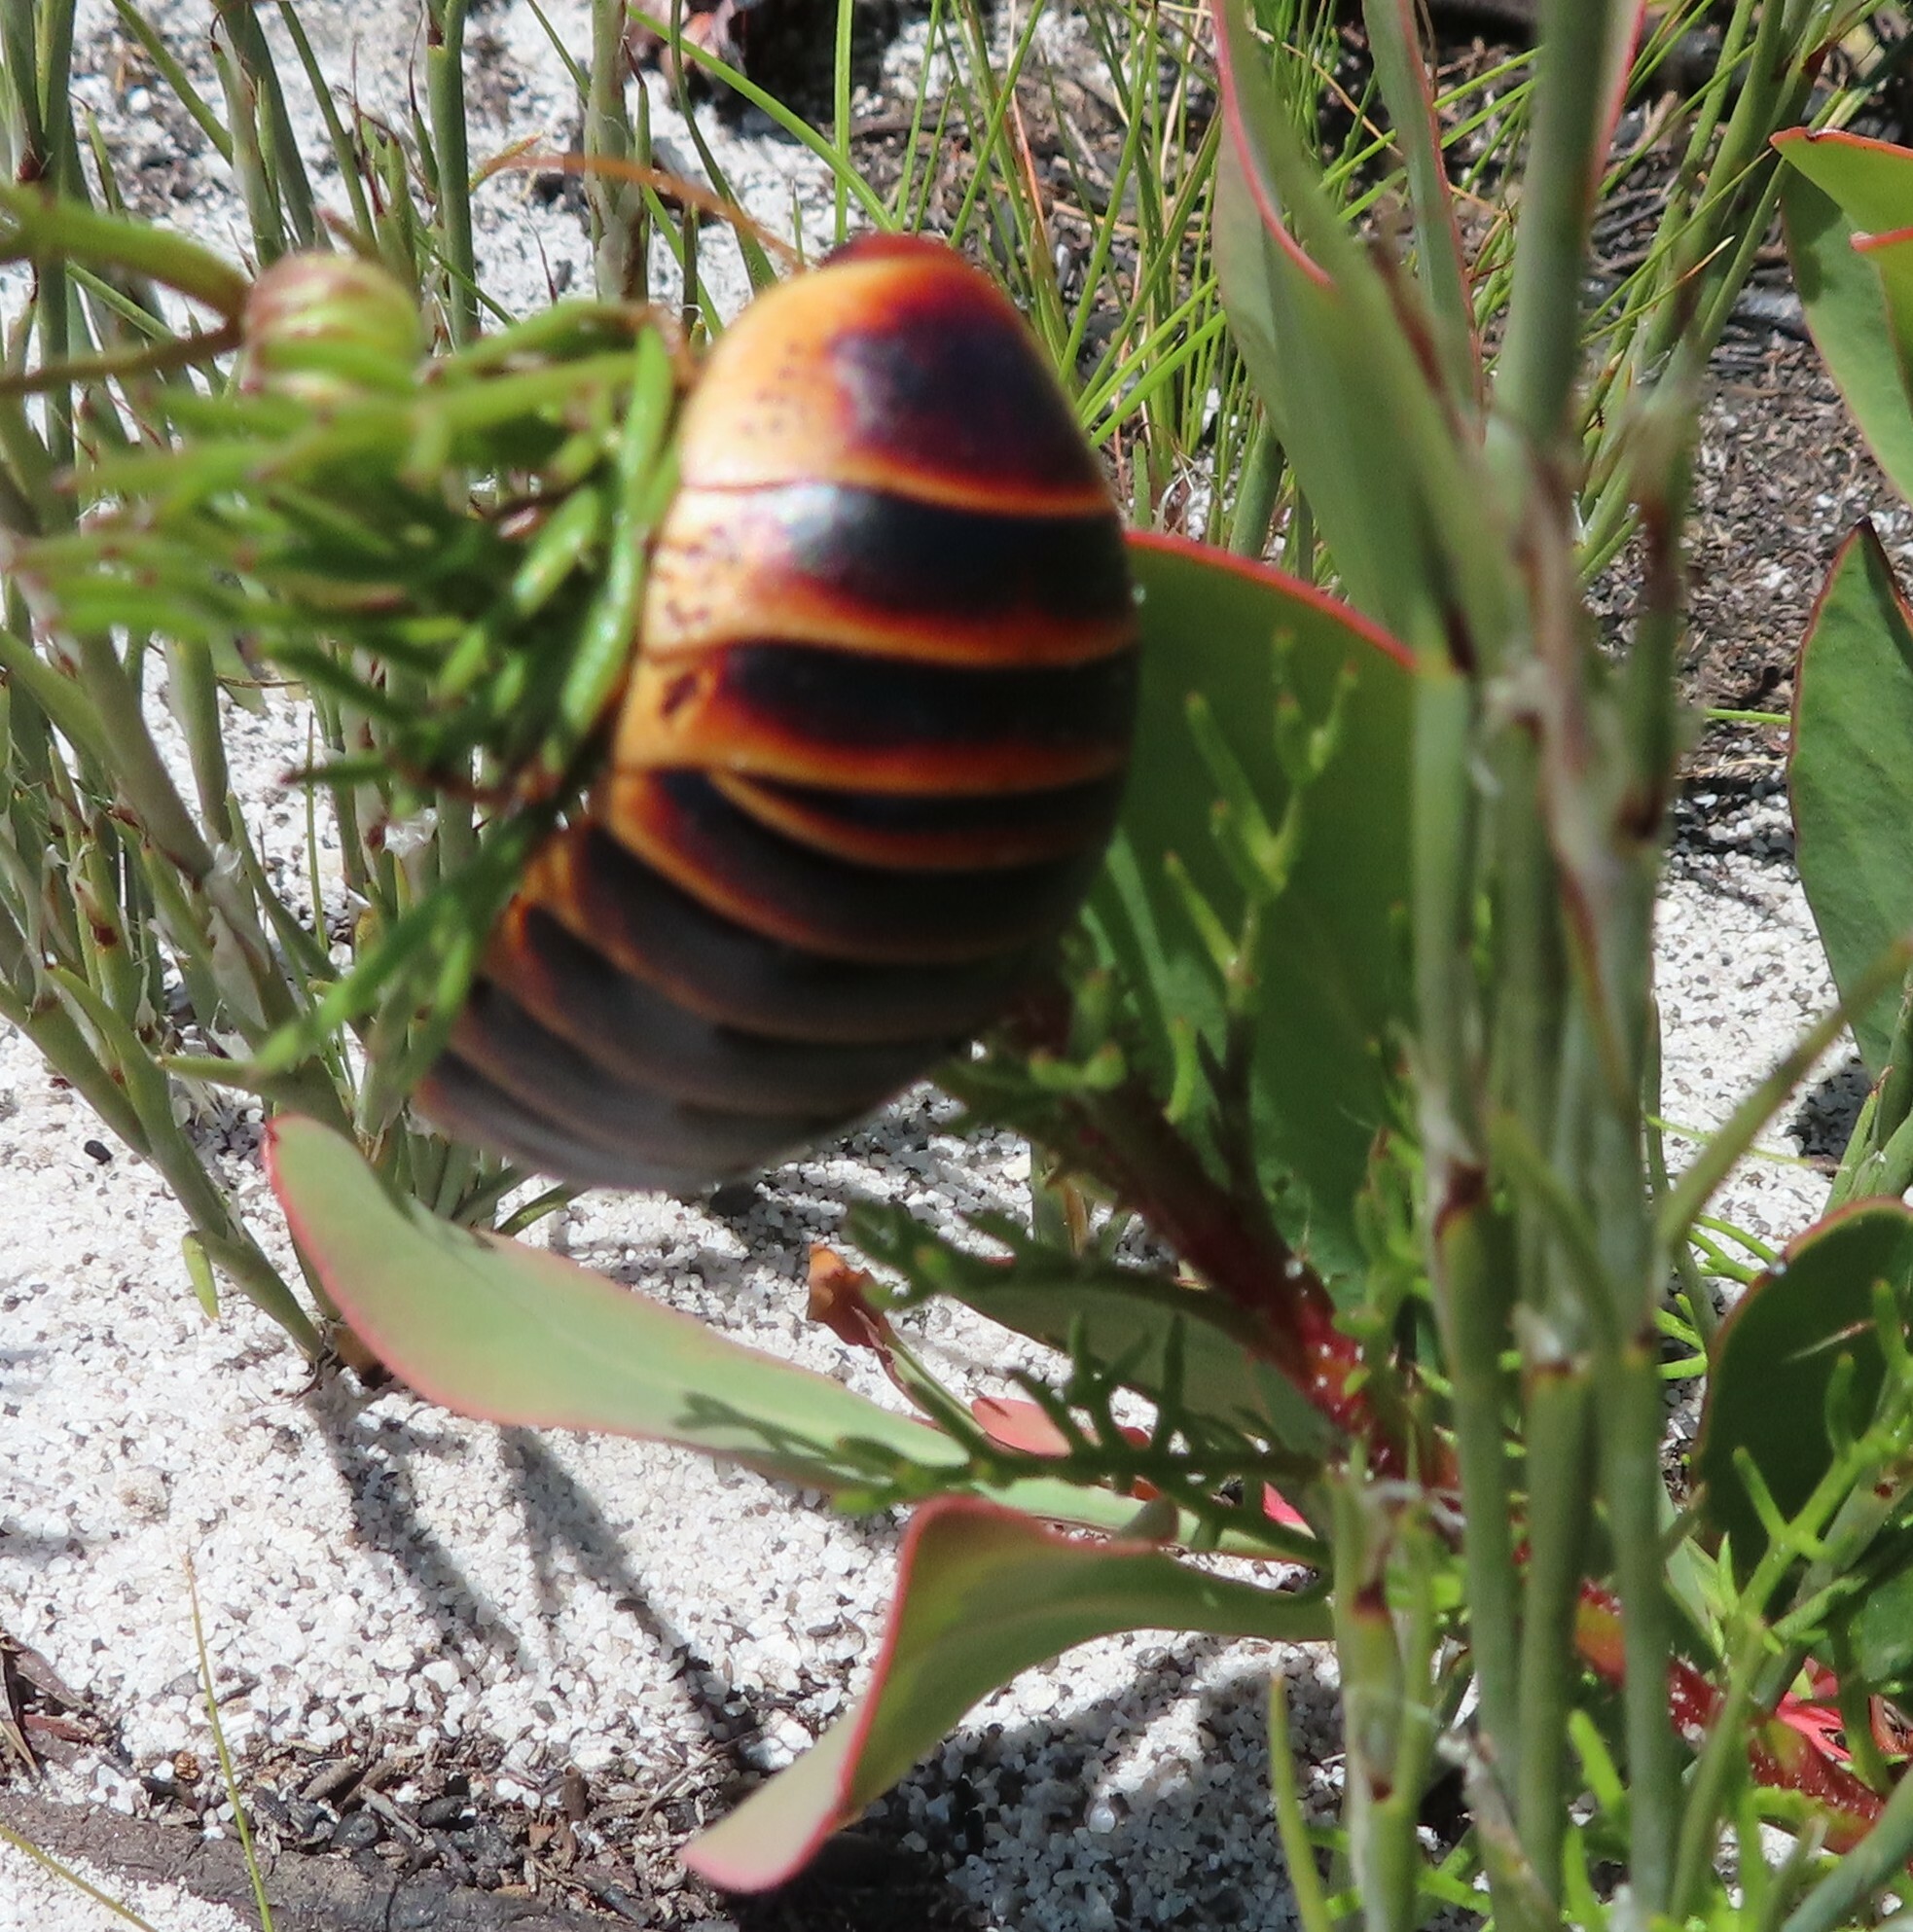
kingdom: Animalia
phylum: Arthropoda
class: Insecta
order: Blattodea
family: Blaberidae
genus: Aptera
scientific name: Aptera fusca
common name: Cape mountain cockroach
